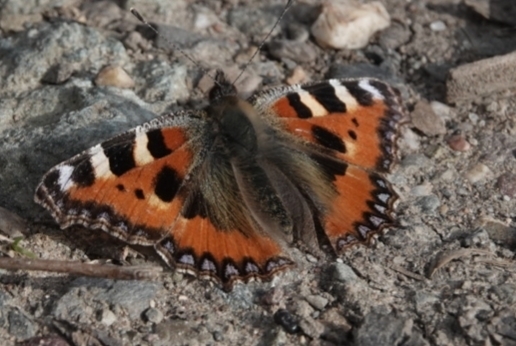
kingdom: Animalia
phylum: Arthropoda
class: Insecta
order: Lepidoptera
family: Nymphalidae
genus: Aglais
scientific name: Aglais urticae
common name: Small tortoiseshell
